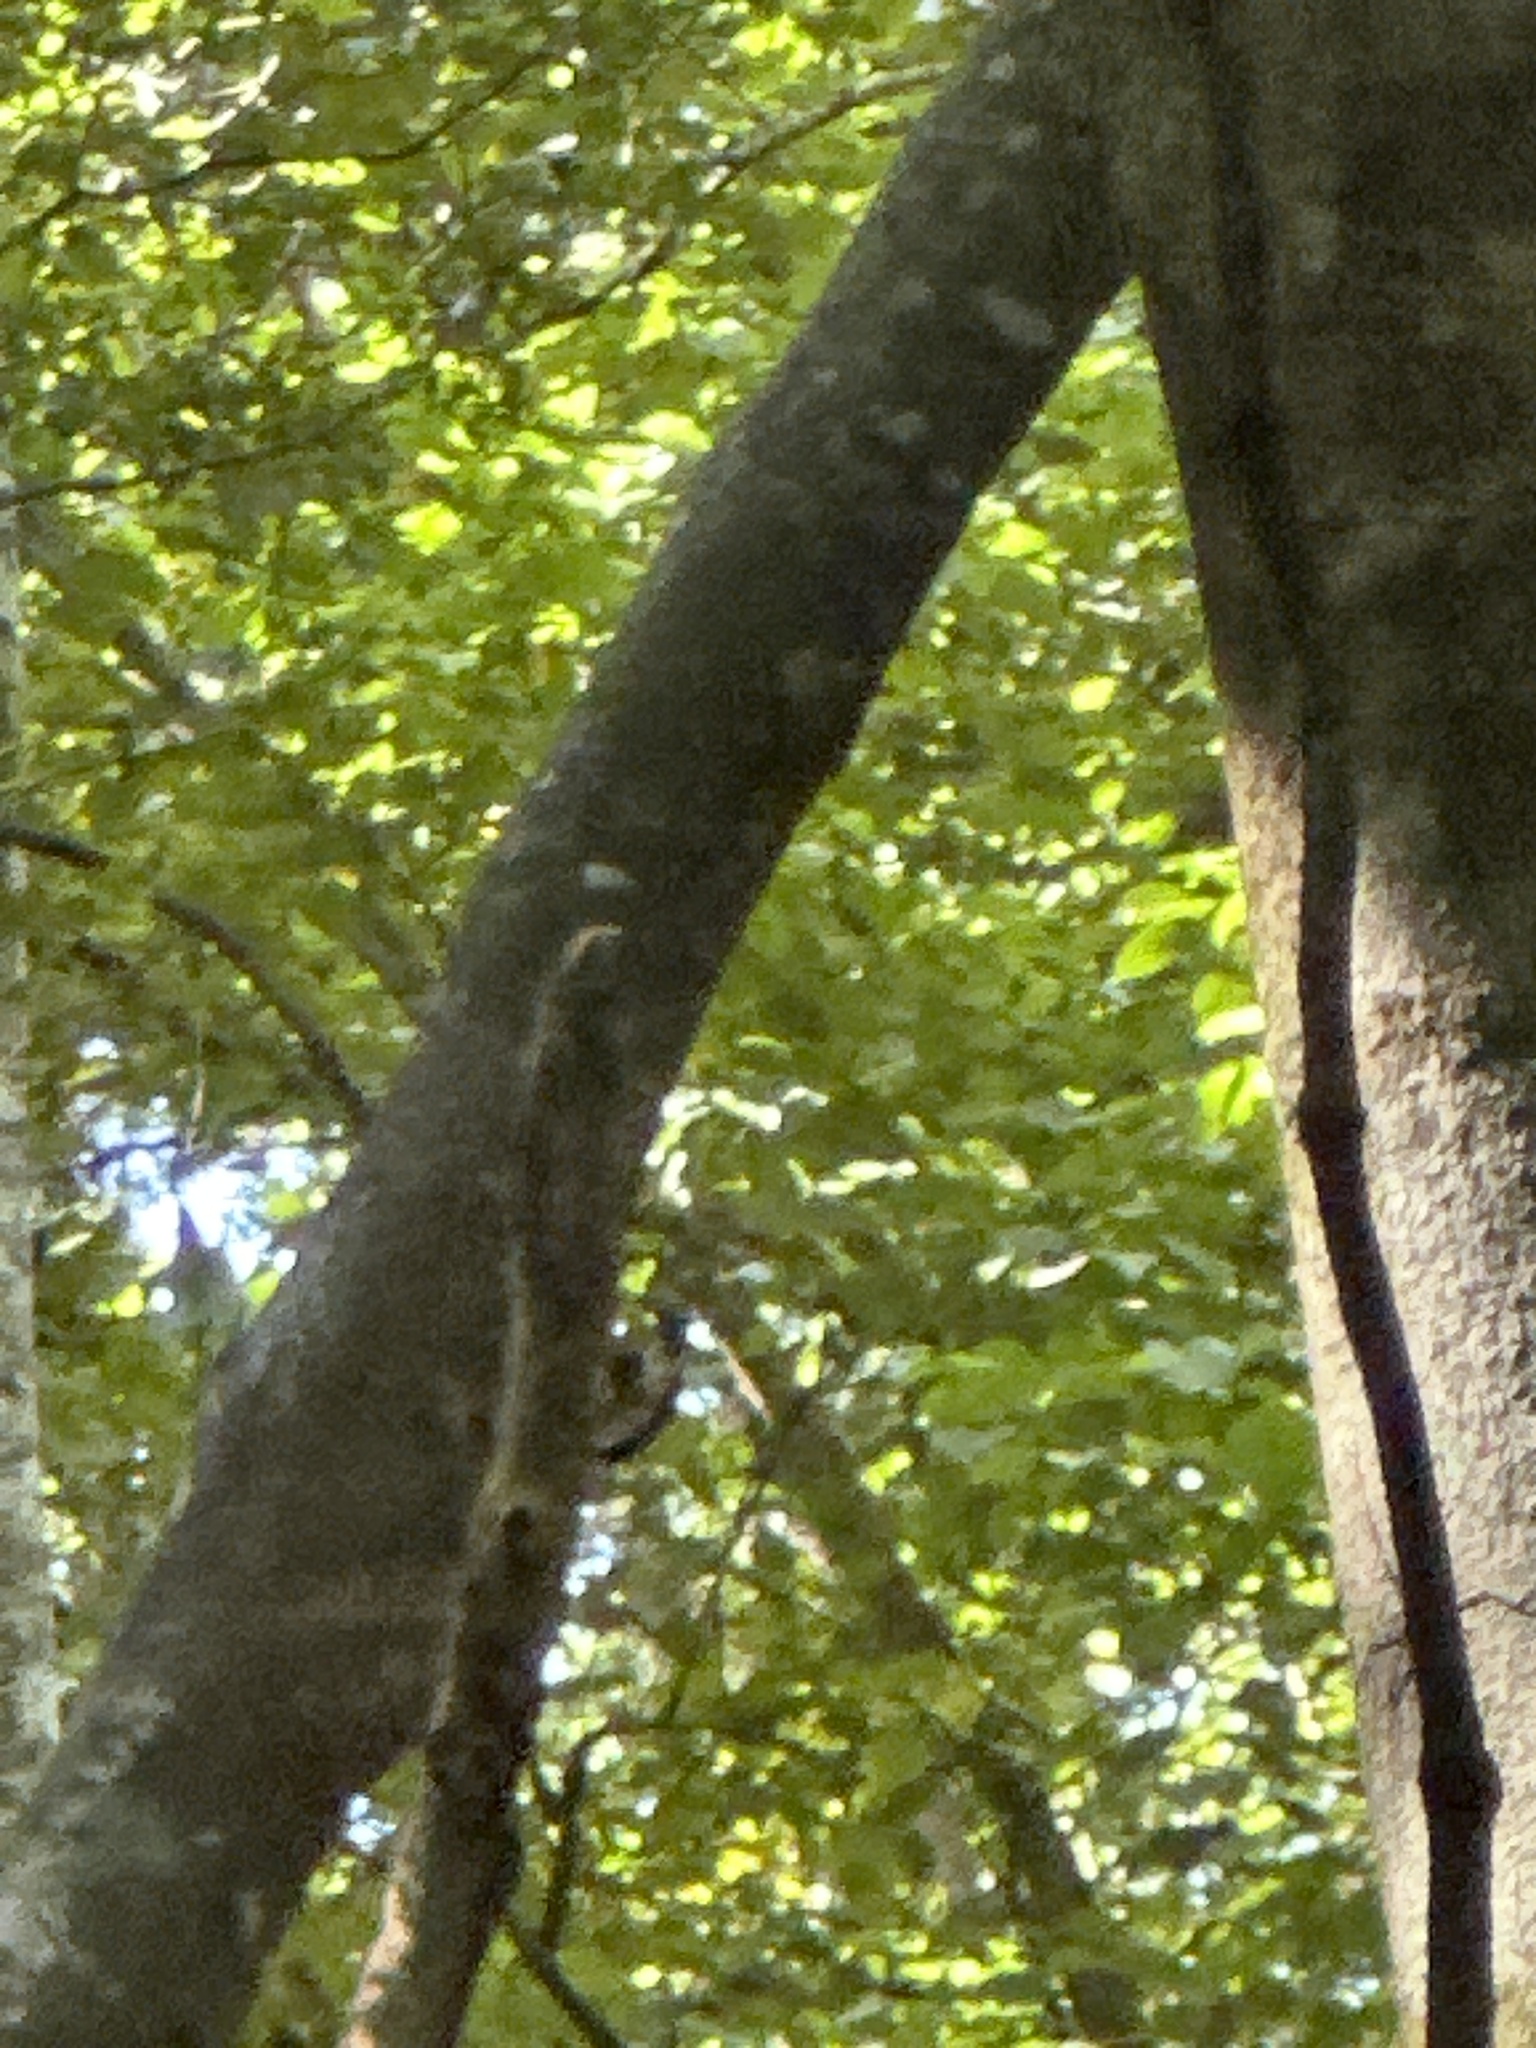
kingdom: Animalia
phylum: Chordata
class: Aves
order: Piciformes
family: Picidae
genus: Mulleripicus
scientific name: Mulleripicus fulvus
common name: Ashy woodpecker
